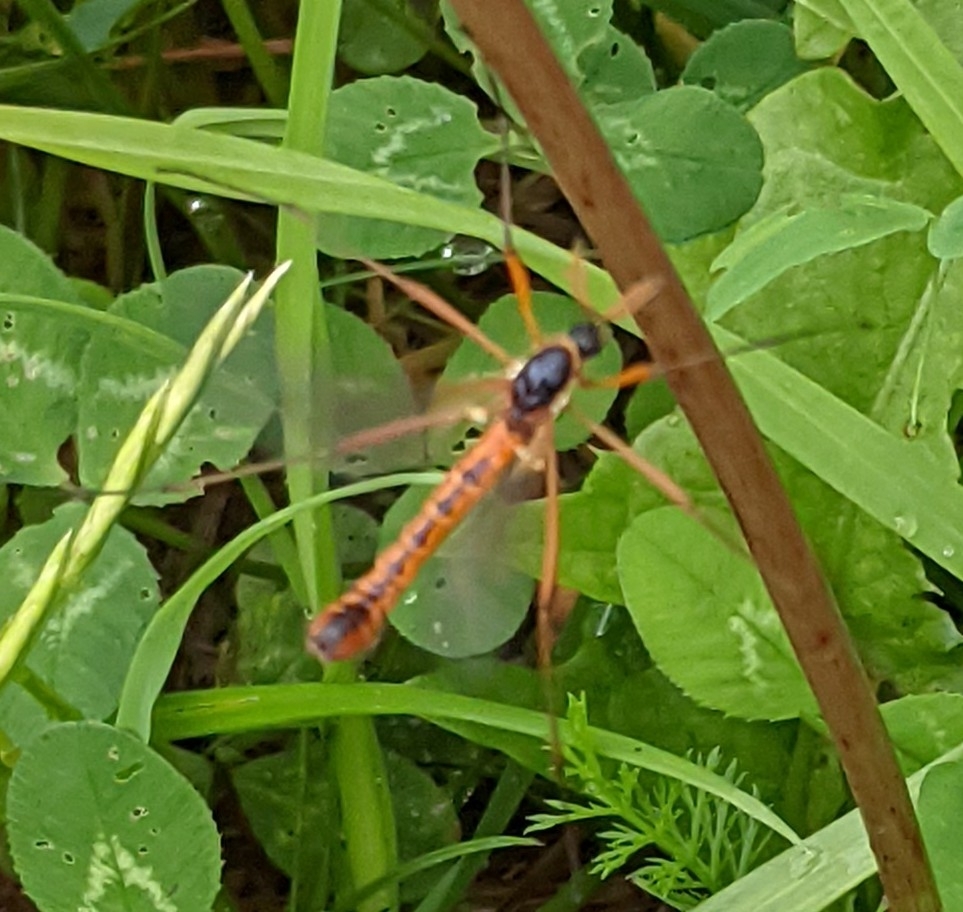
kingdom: Animalia
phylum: Arthropoda
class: Insecta
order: Diptera
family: Tipulidae
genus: Tanyptera
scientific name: Tanyptera atrata
